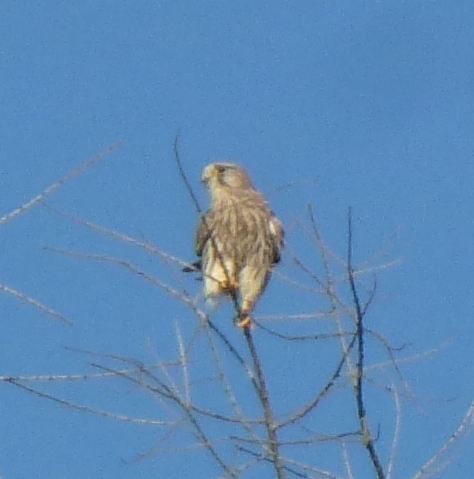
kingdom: Animalia
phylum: Chordata
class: Aves
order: Falconiformes
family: Falconidae
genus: Falco
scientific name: Falco tinnunculus
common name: Common kestrel
